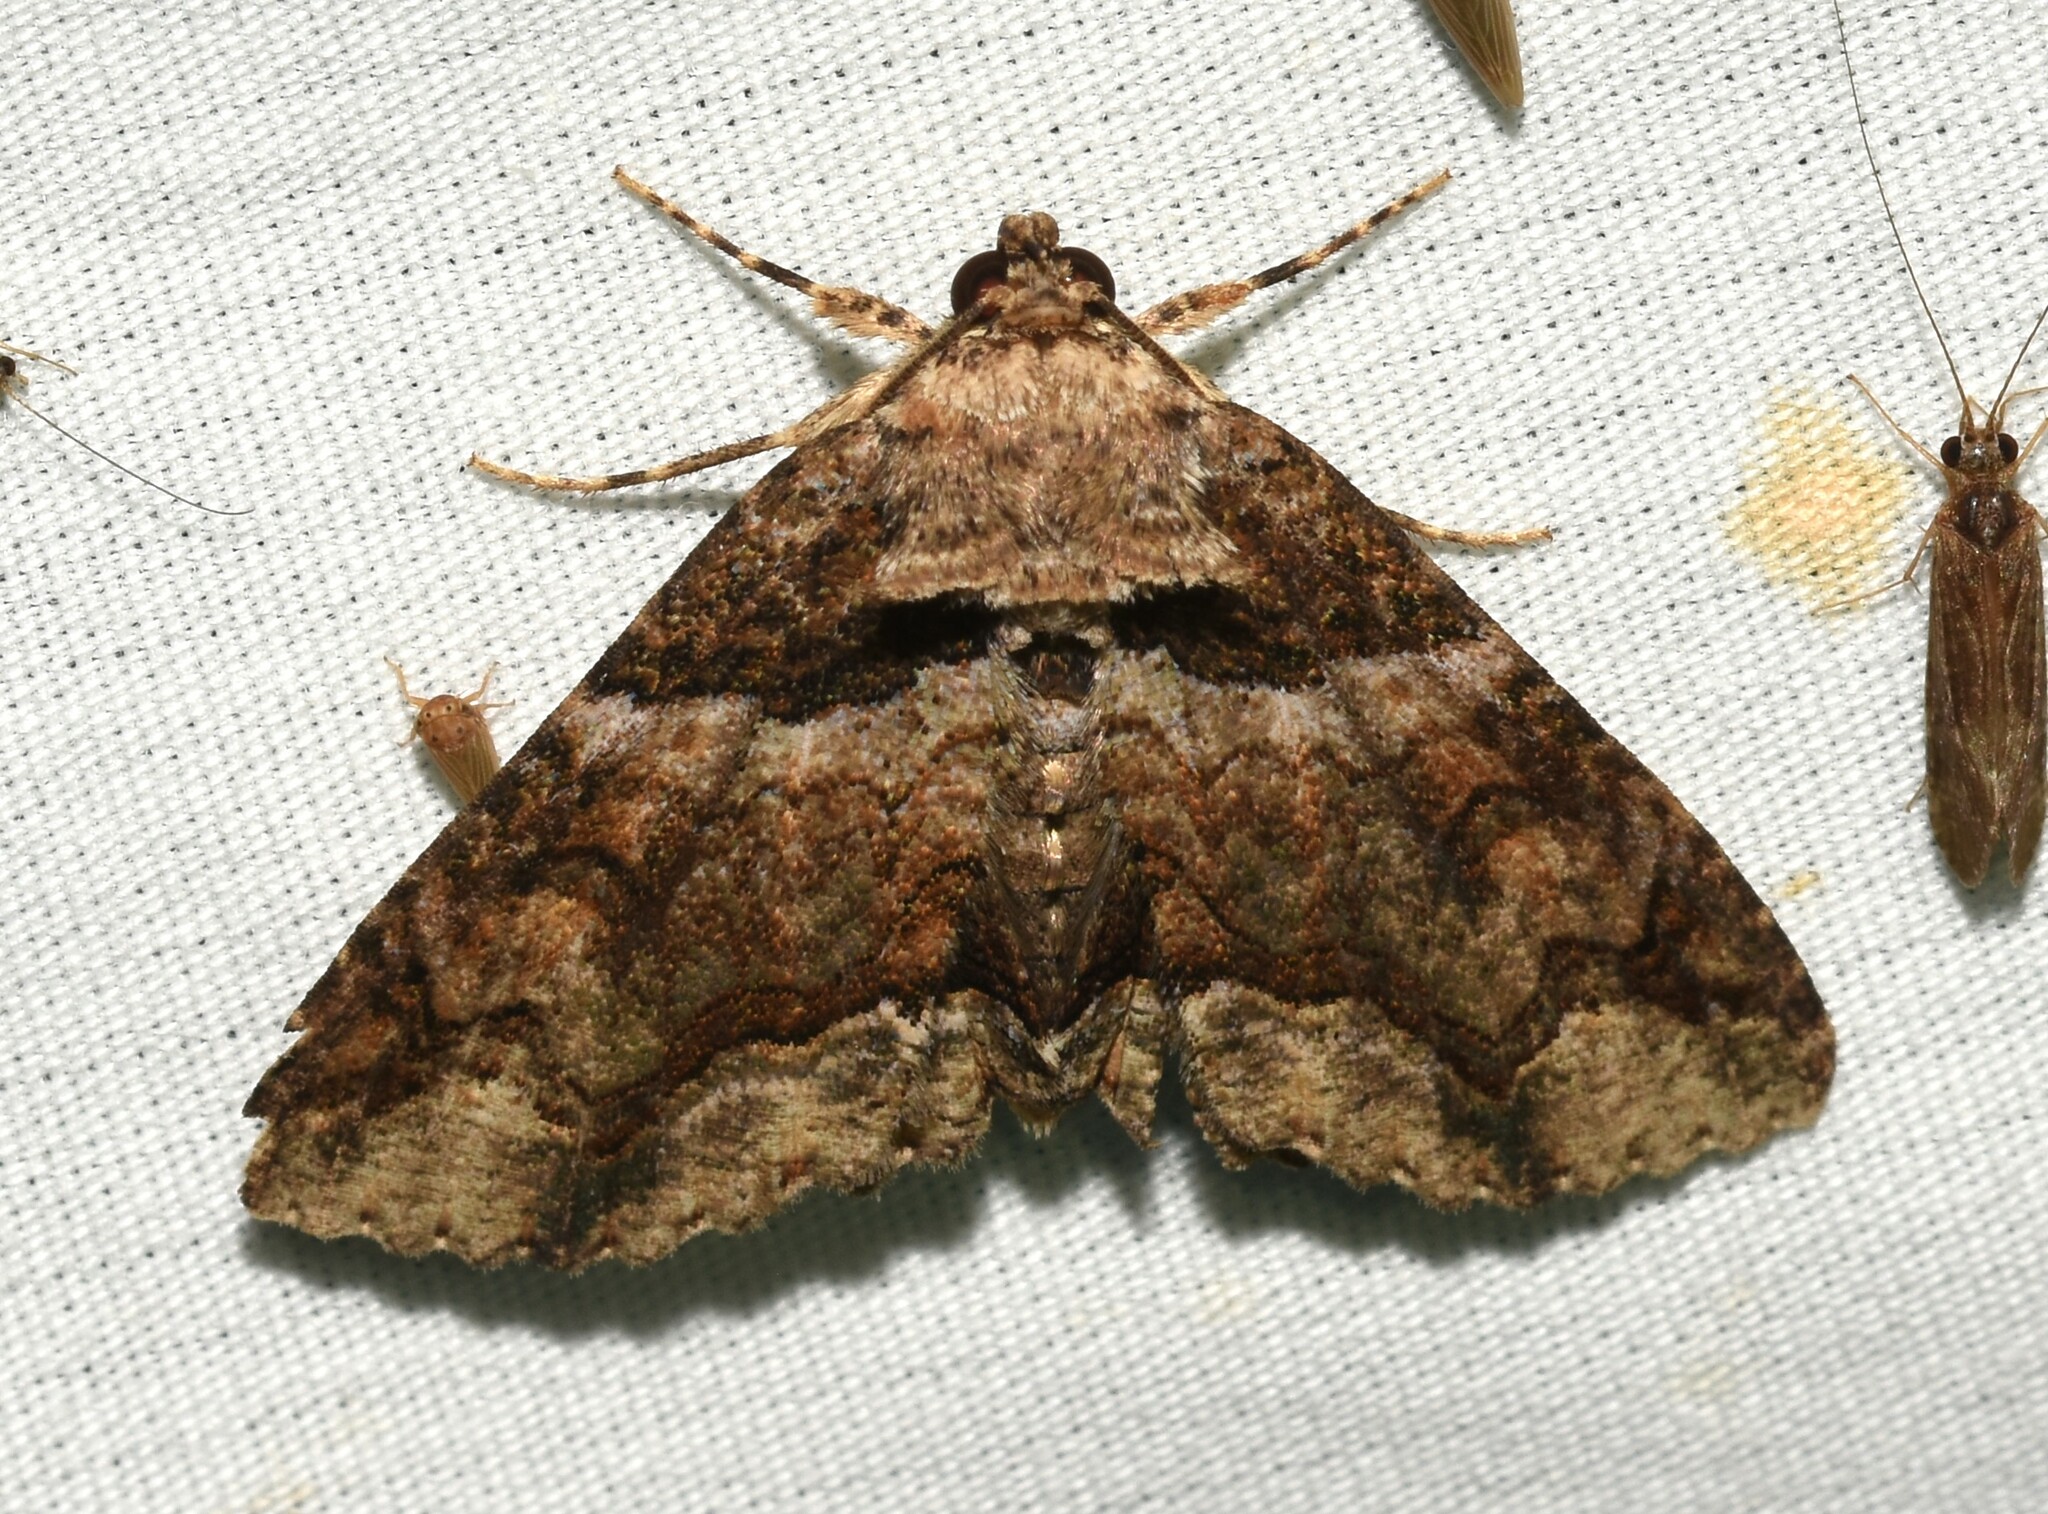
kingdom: Animalia
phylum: Arthropoda
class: Insecta
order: Lepidoptera
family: Erebidae
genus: Zale
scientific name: Zale galbanata
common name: Maple zale
